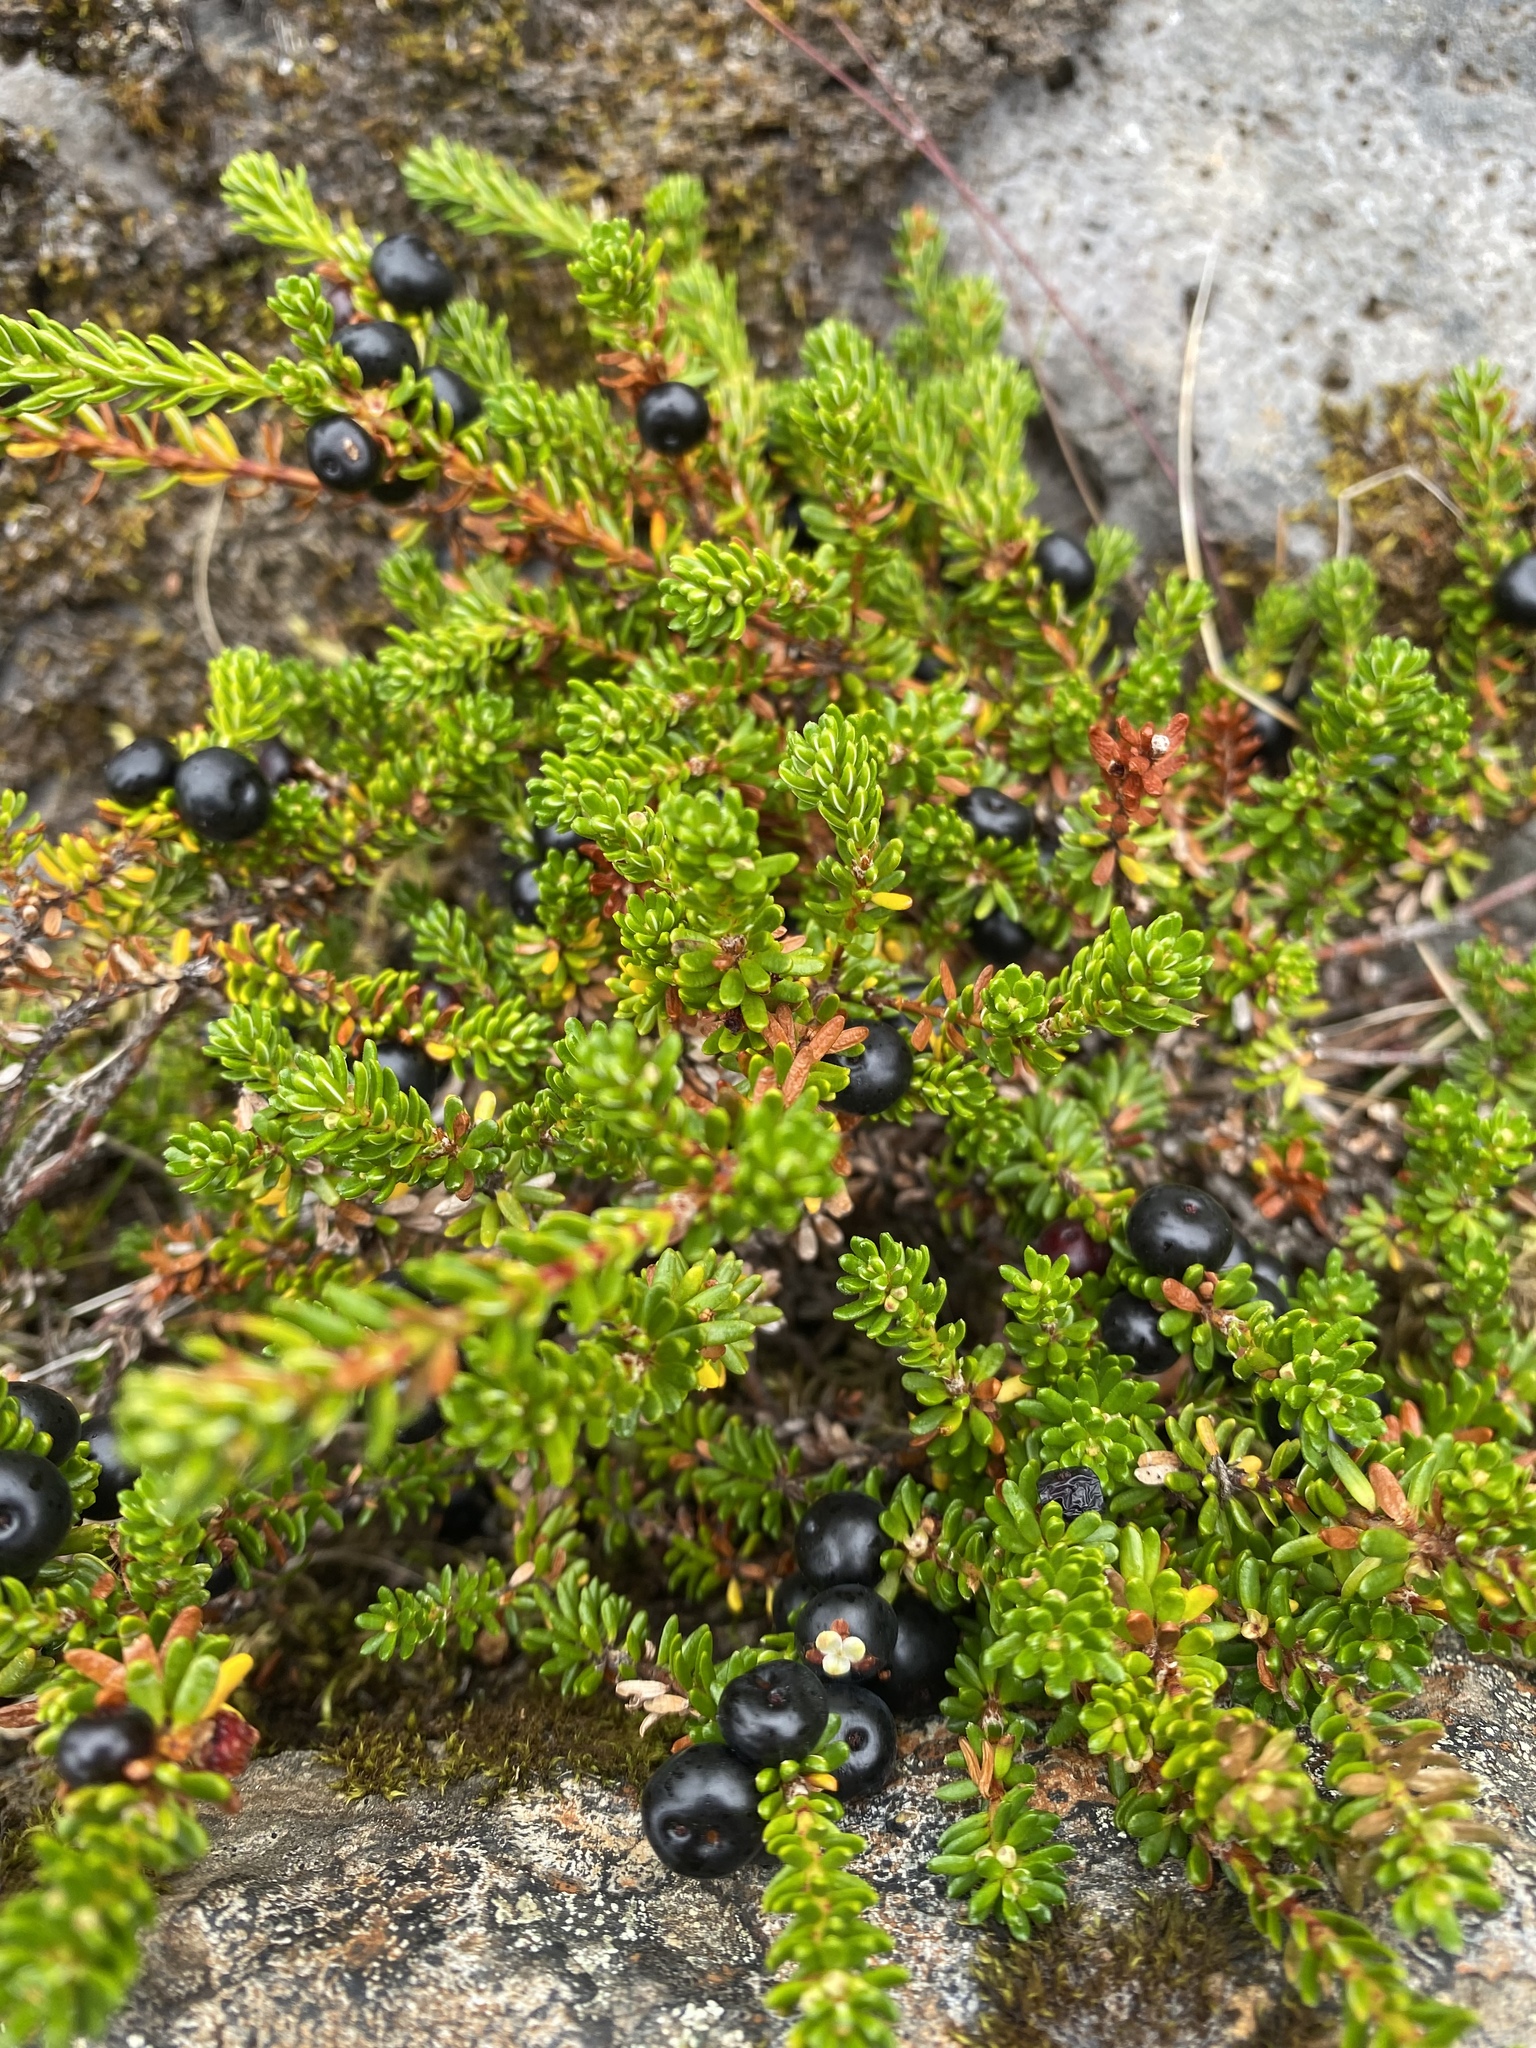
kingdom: Plantae
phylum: Tracheophyta
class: Magnoliopsida
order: Ericales
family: Ericaceae
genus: Empetrum
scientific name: Empetrum nigrum
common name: Black crowberry
